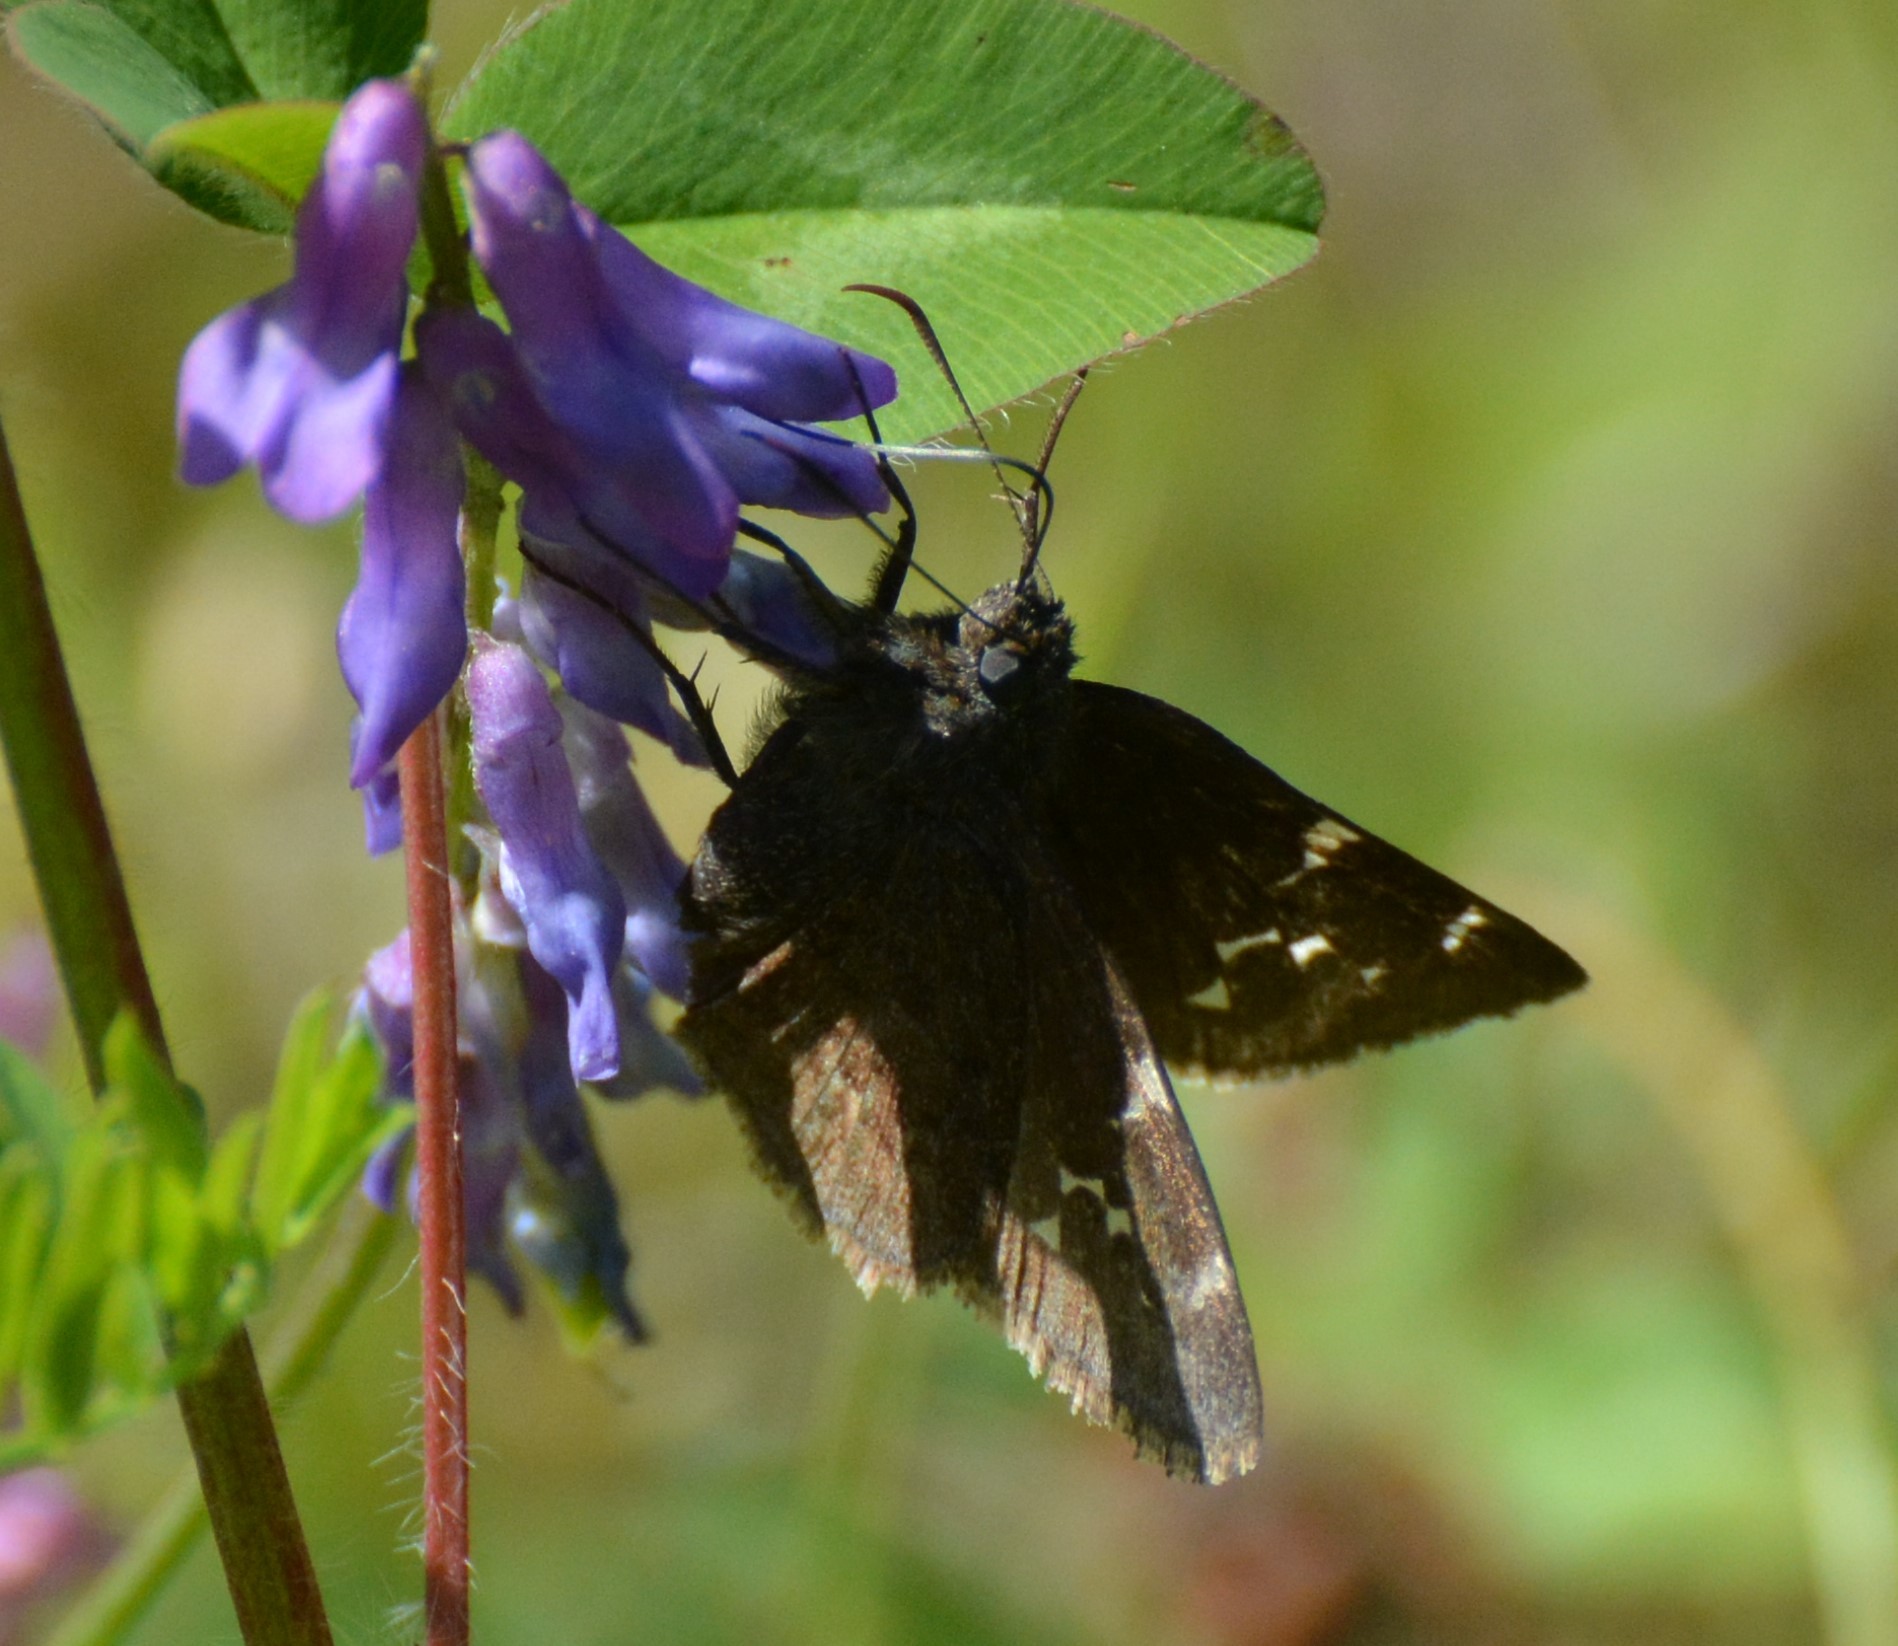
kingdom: Animalia
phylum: Arthropoda
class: Insecta
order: Lepidoptera
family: Hesperiidae
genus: Thorybes
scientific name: Thorybes pylades
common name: Northern cloudywing
